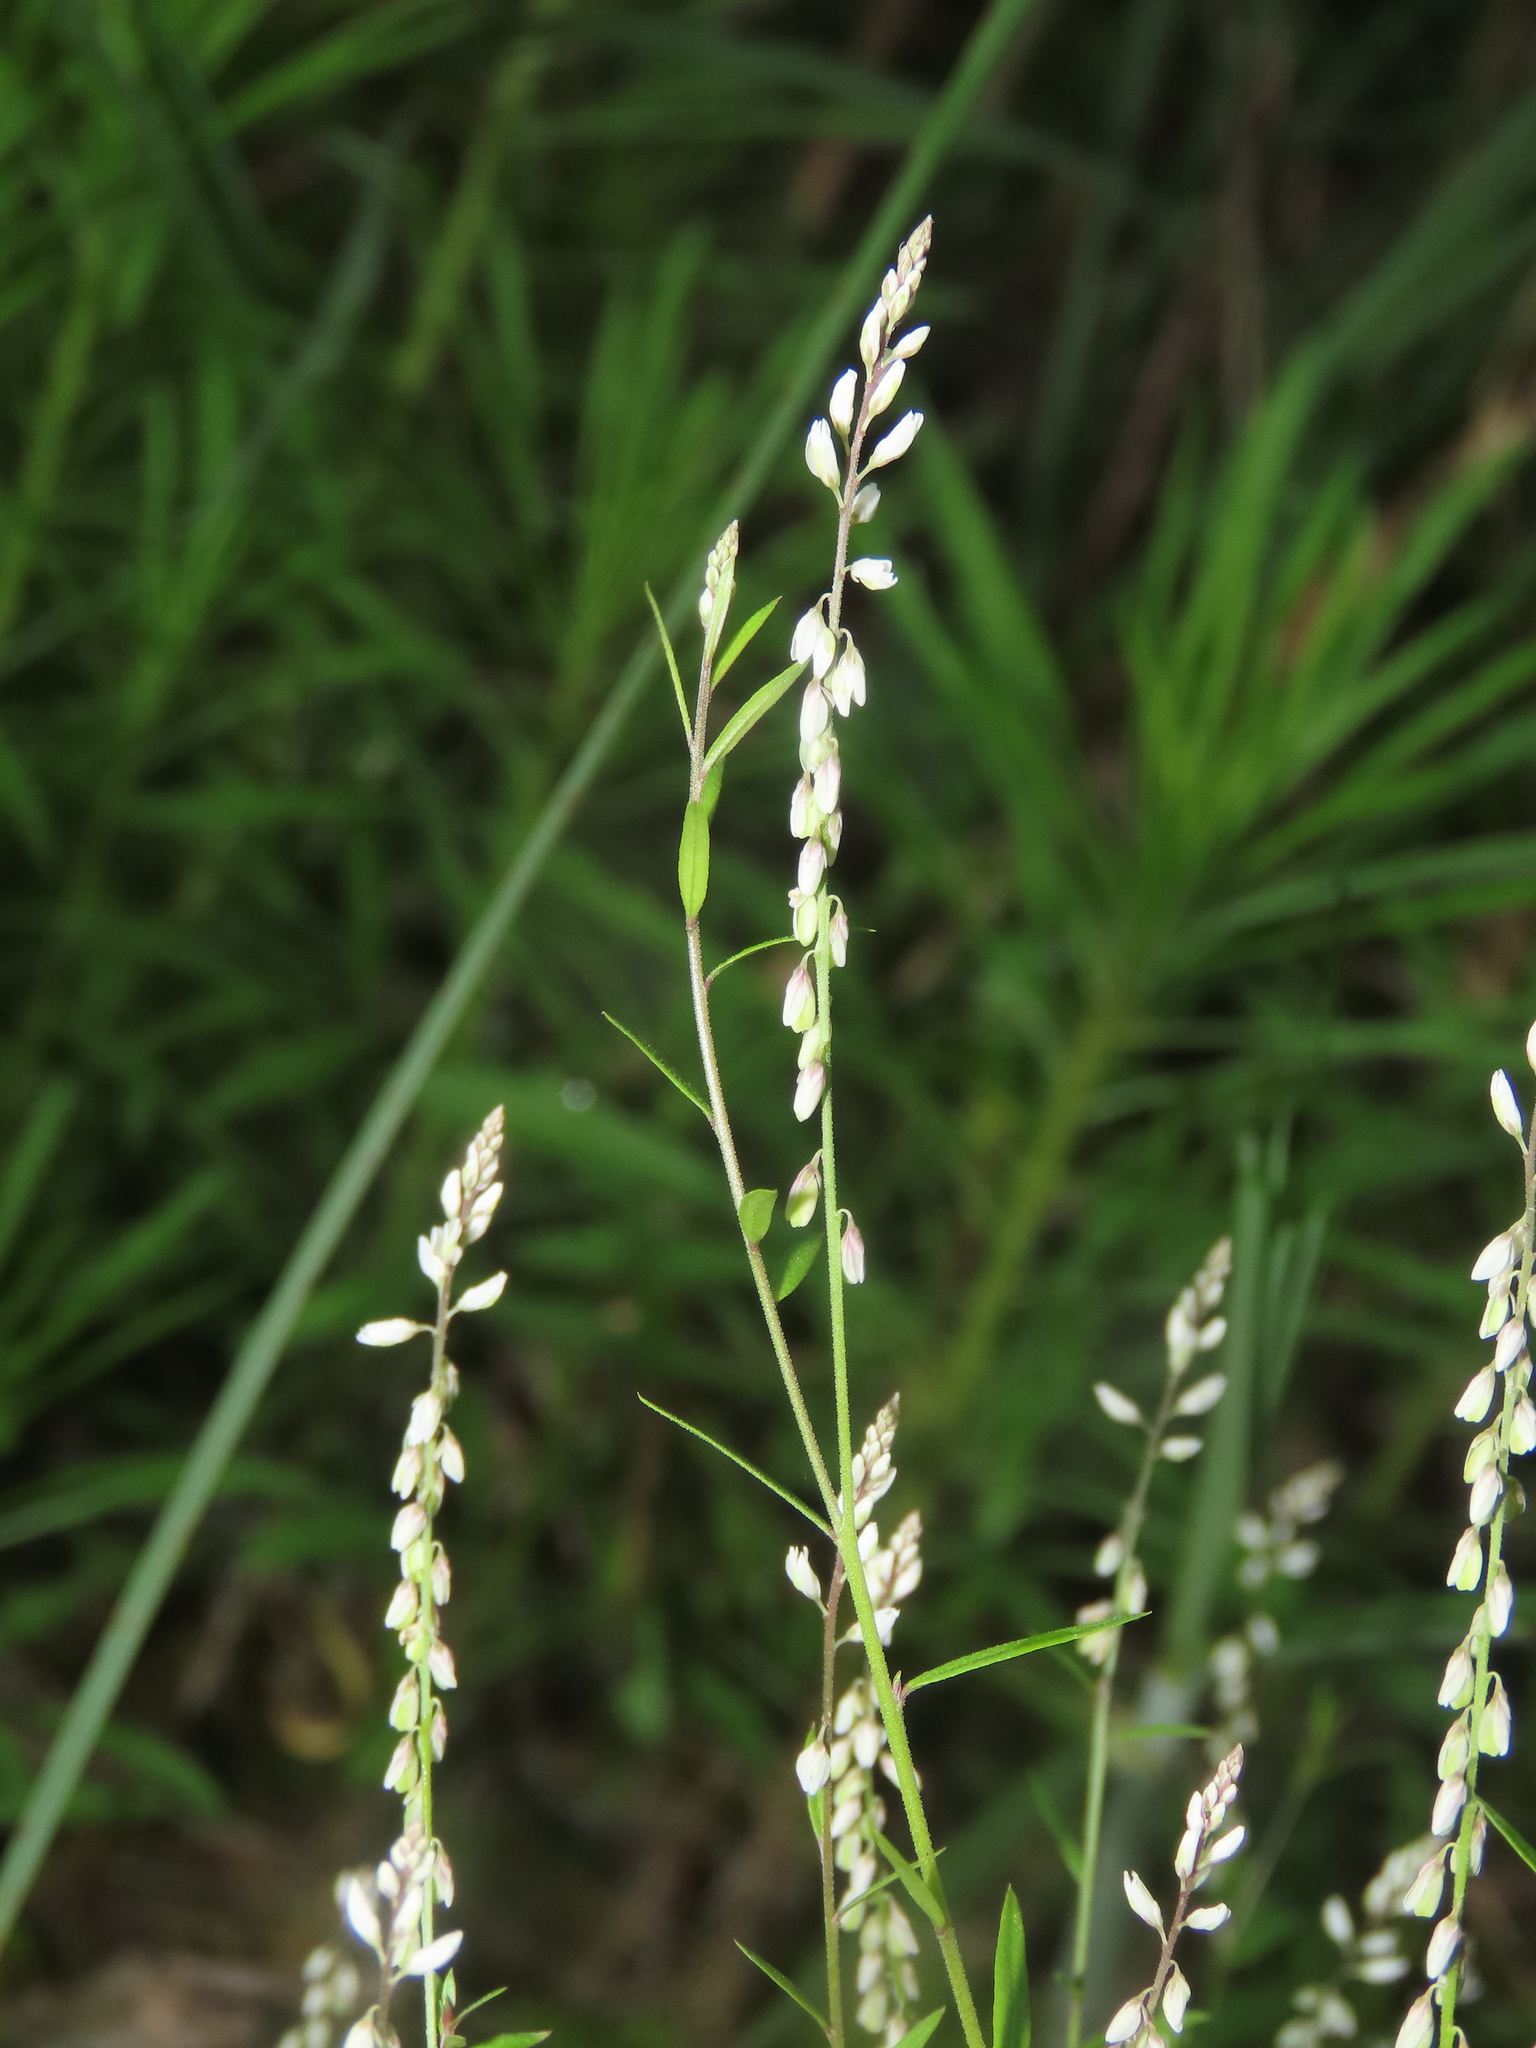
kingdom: Plantae
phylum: Tracheophyta
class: Magnoliopsida
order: Fabales
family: Polygalaceae
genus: Polygala
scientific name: Polygala paniculata
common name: Orosne
